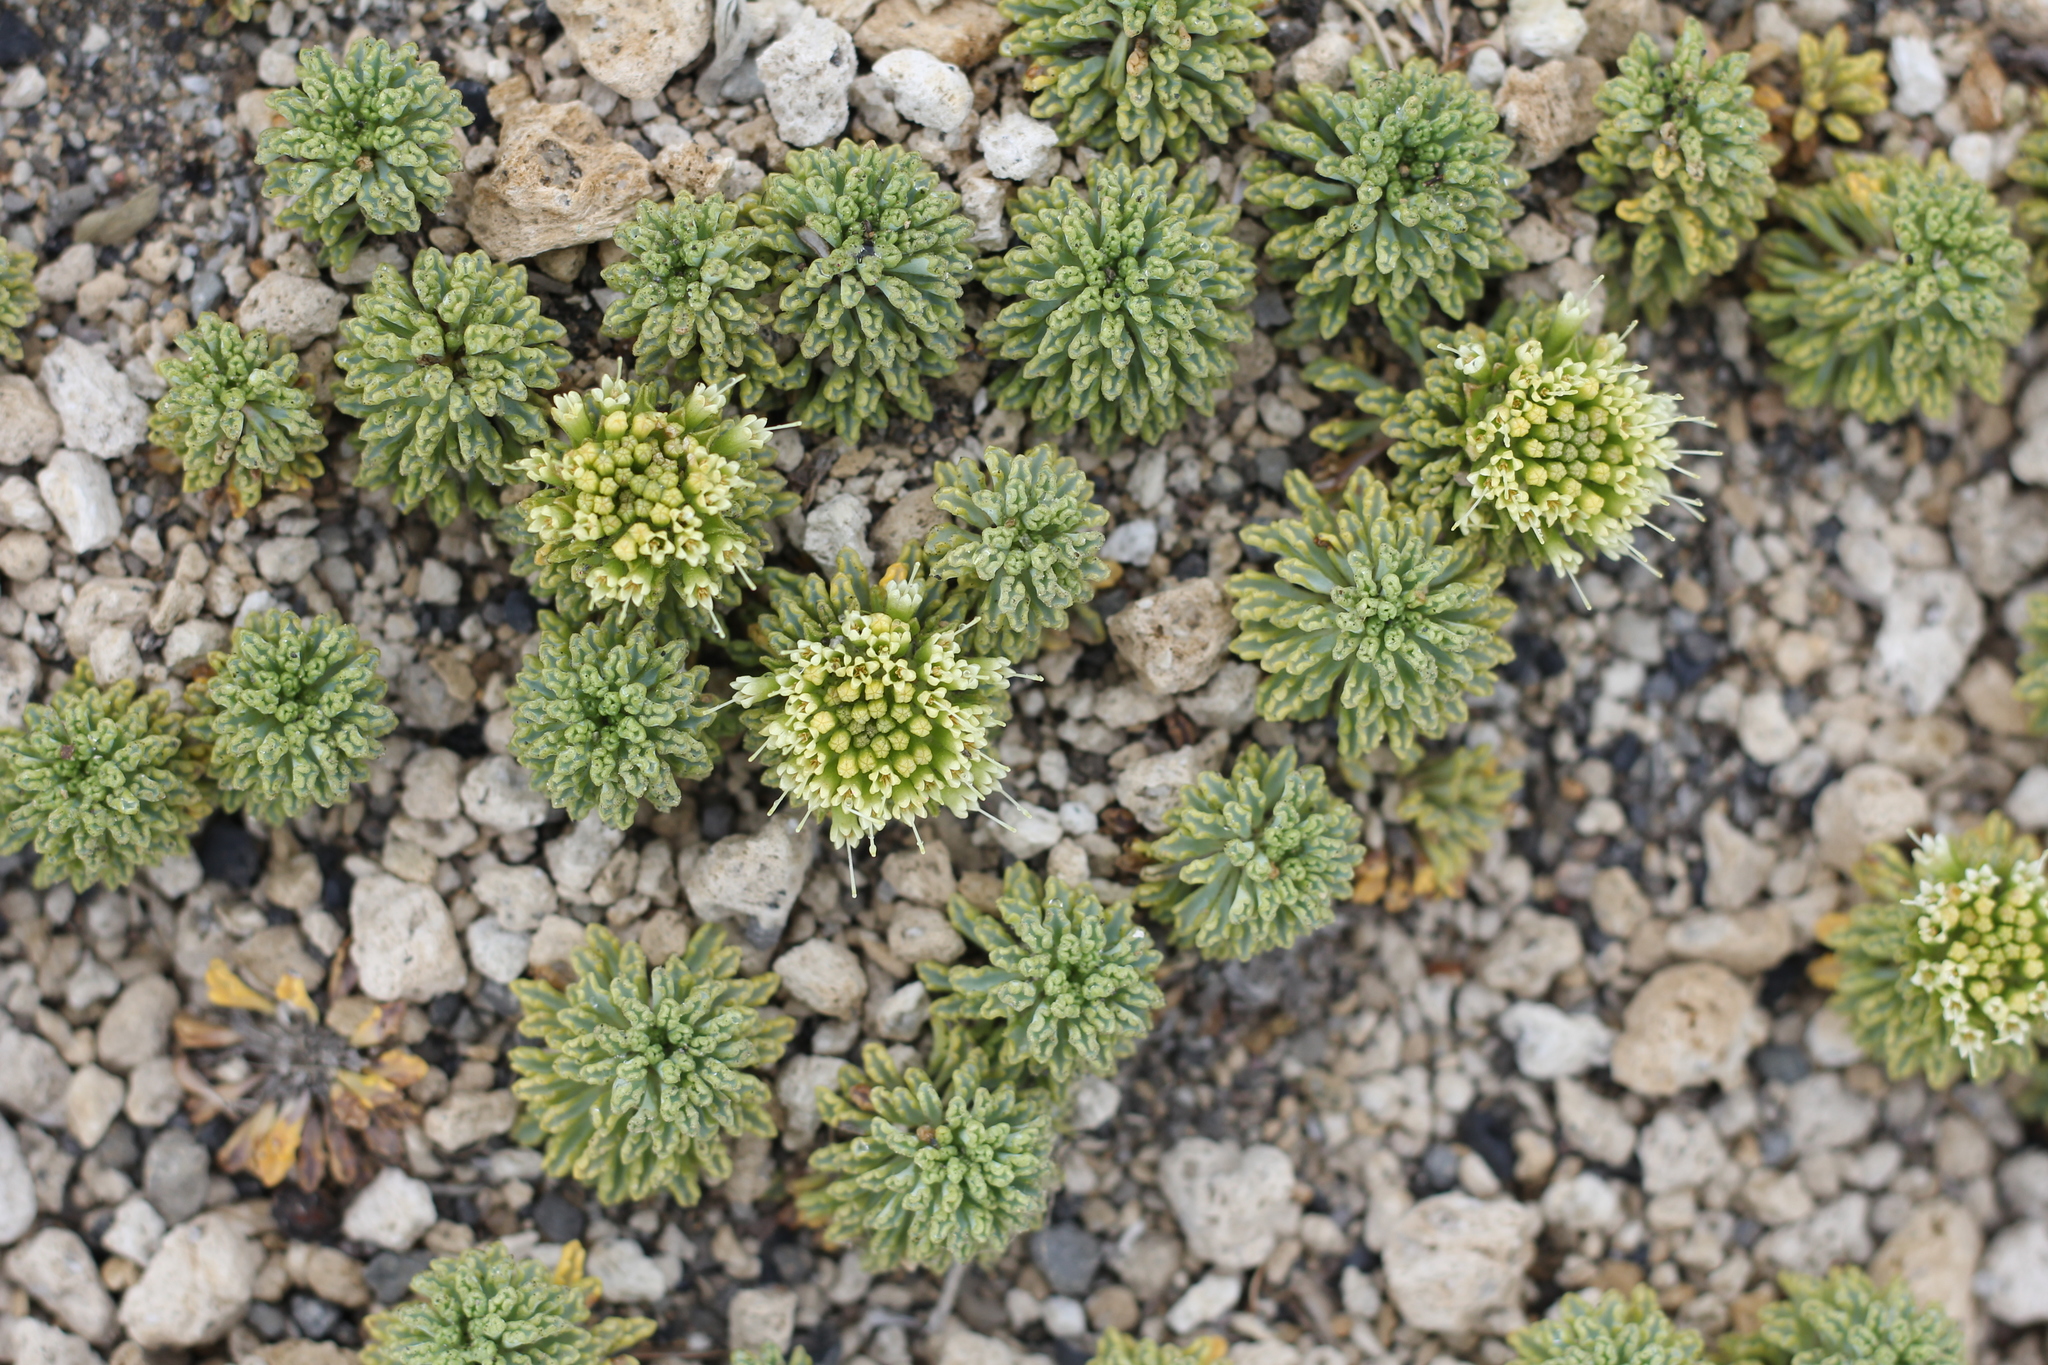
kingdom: Plantae
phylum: Tracheophyta
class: Magnoliopsida
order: Asterales
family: Calyceraceae
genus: Moschopsis
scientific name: Moschopsis dentata
